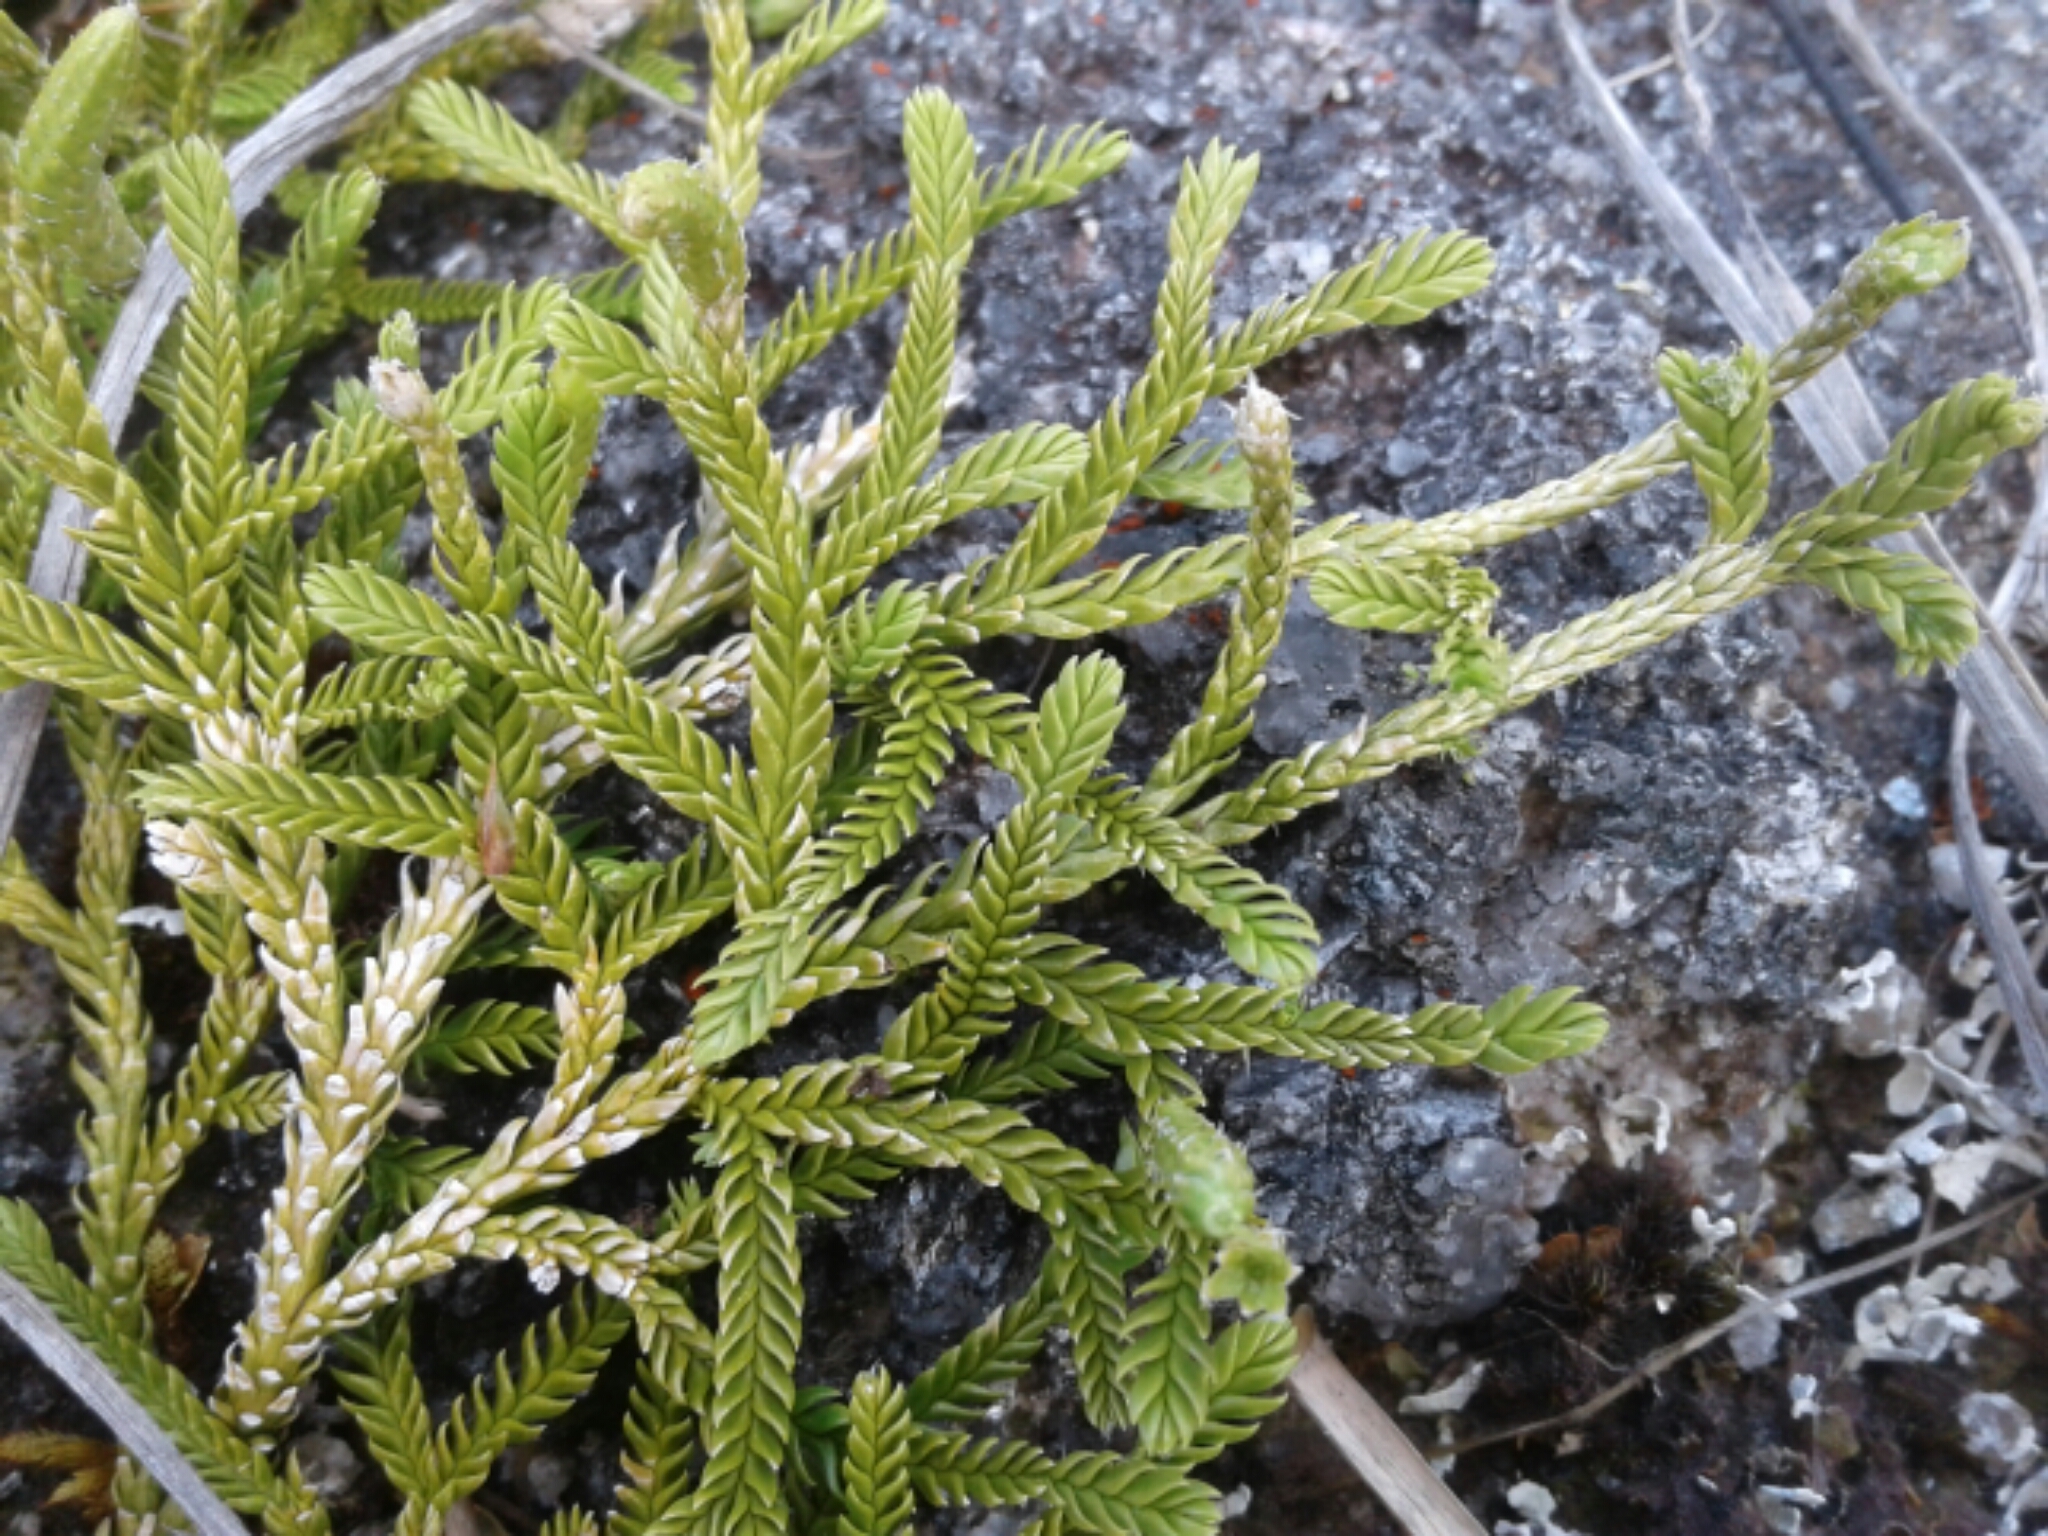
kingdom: Plantae
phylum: Tracheophyta
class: Lycopodiopsida
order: Lycopodiales
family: Lycopodiaceae
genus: Diphasium
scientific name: Diphasium scariosum
